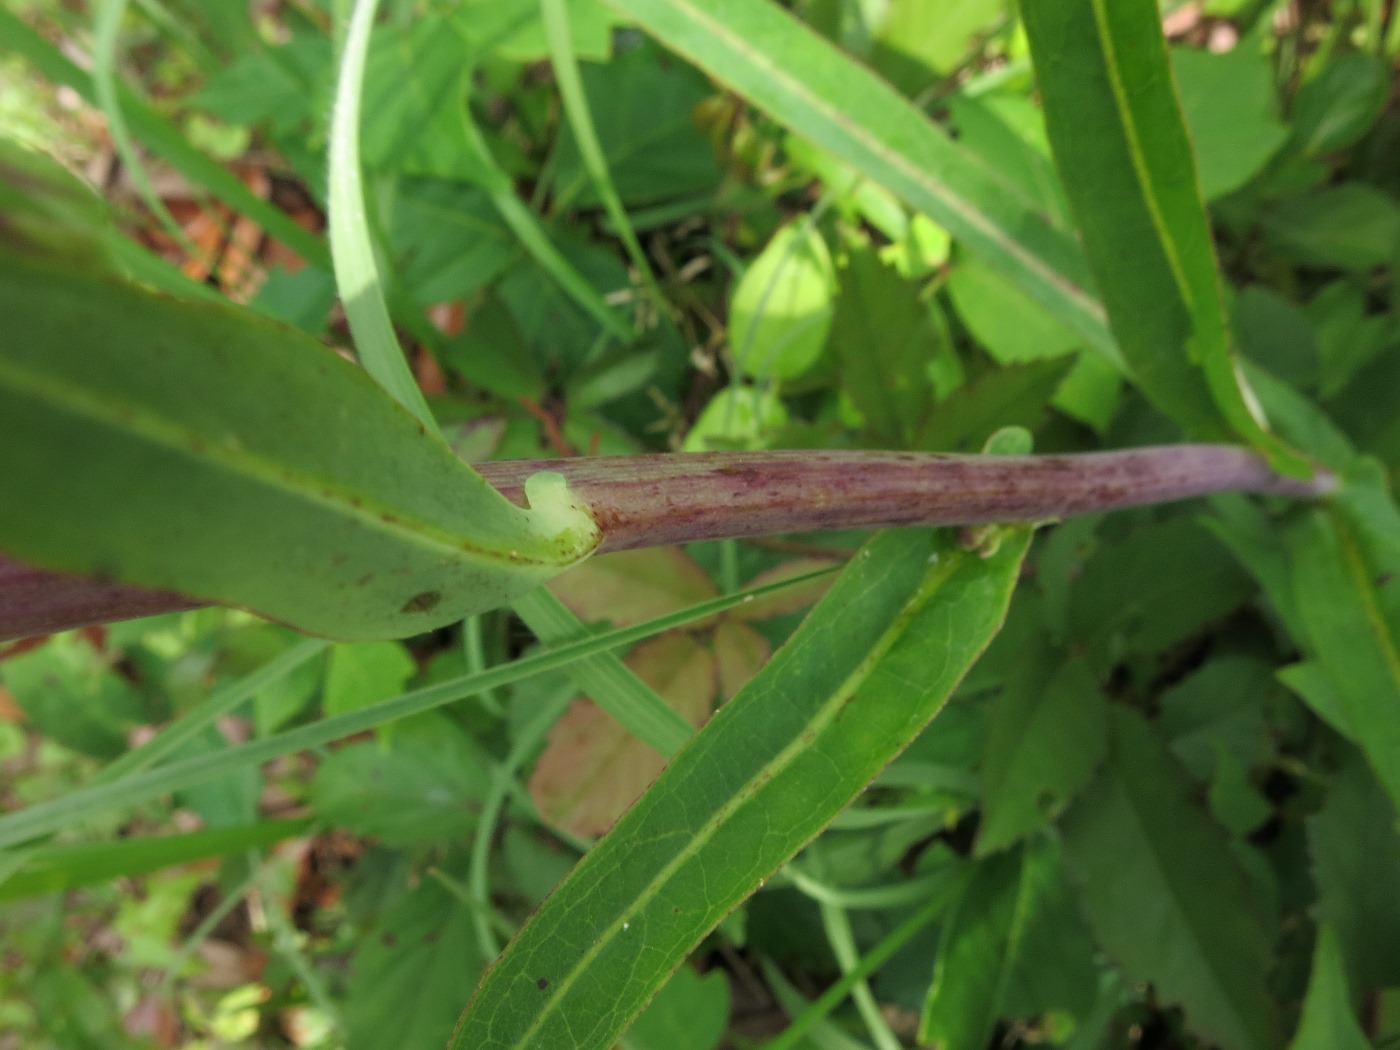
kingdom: Plantae
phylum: Tracheophyta
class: Magnoliopsida
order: Asterales
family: Asteraceae
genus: Lactuca
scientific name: Lactuca graminifolia
